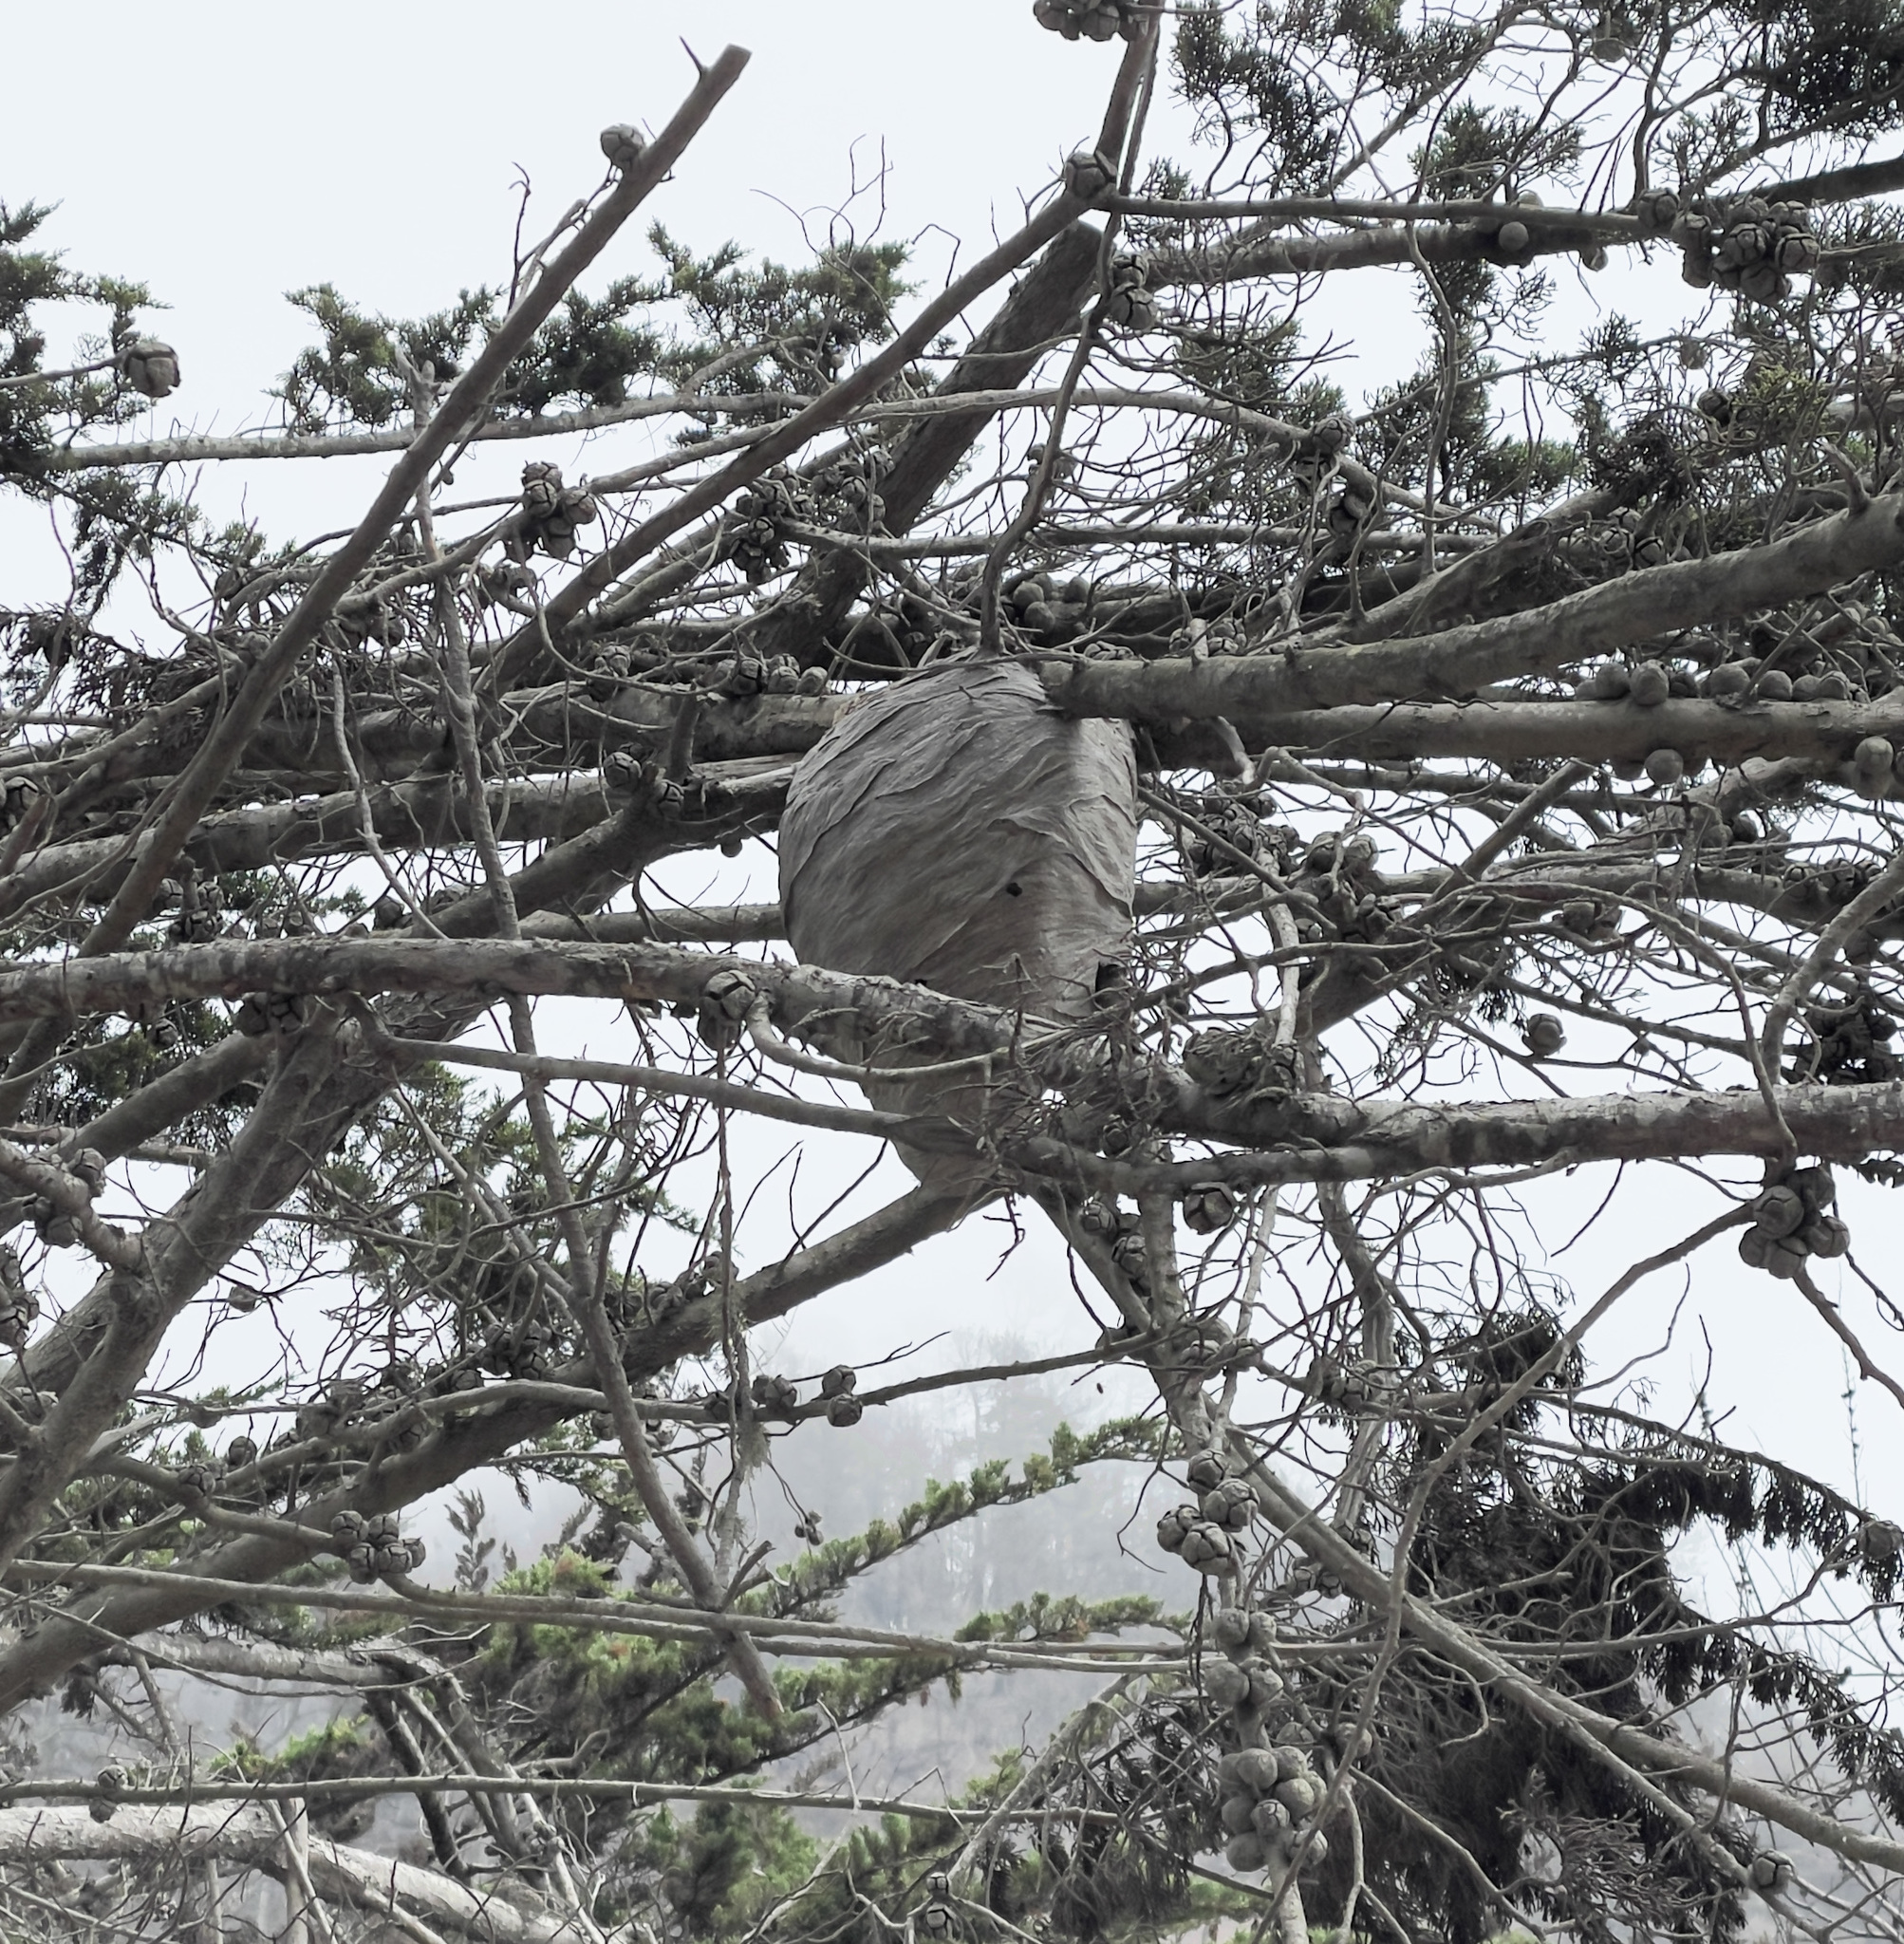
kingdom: Animalia
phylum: Arthropoda
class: Insecta
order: Hymenoptera
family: Vespidae
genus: Dolichovespula
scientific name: Dolichovespula
